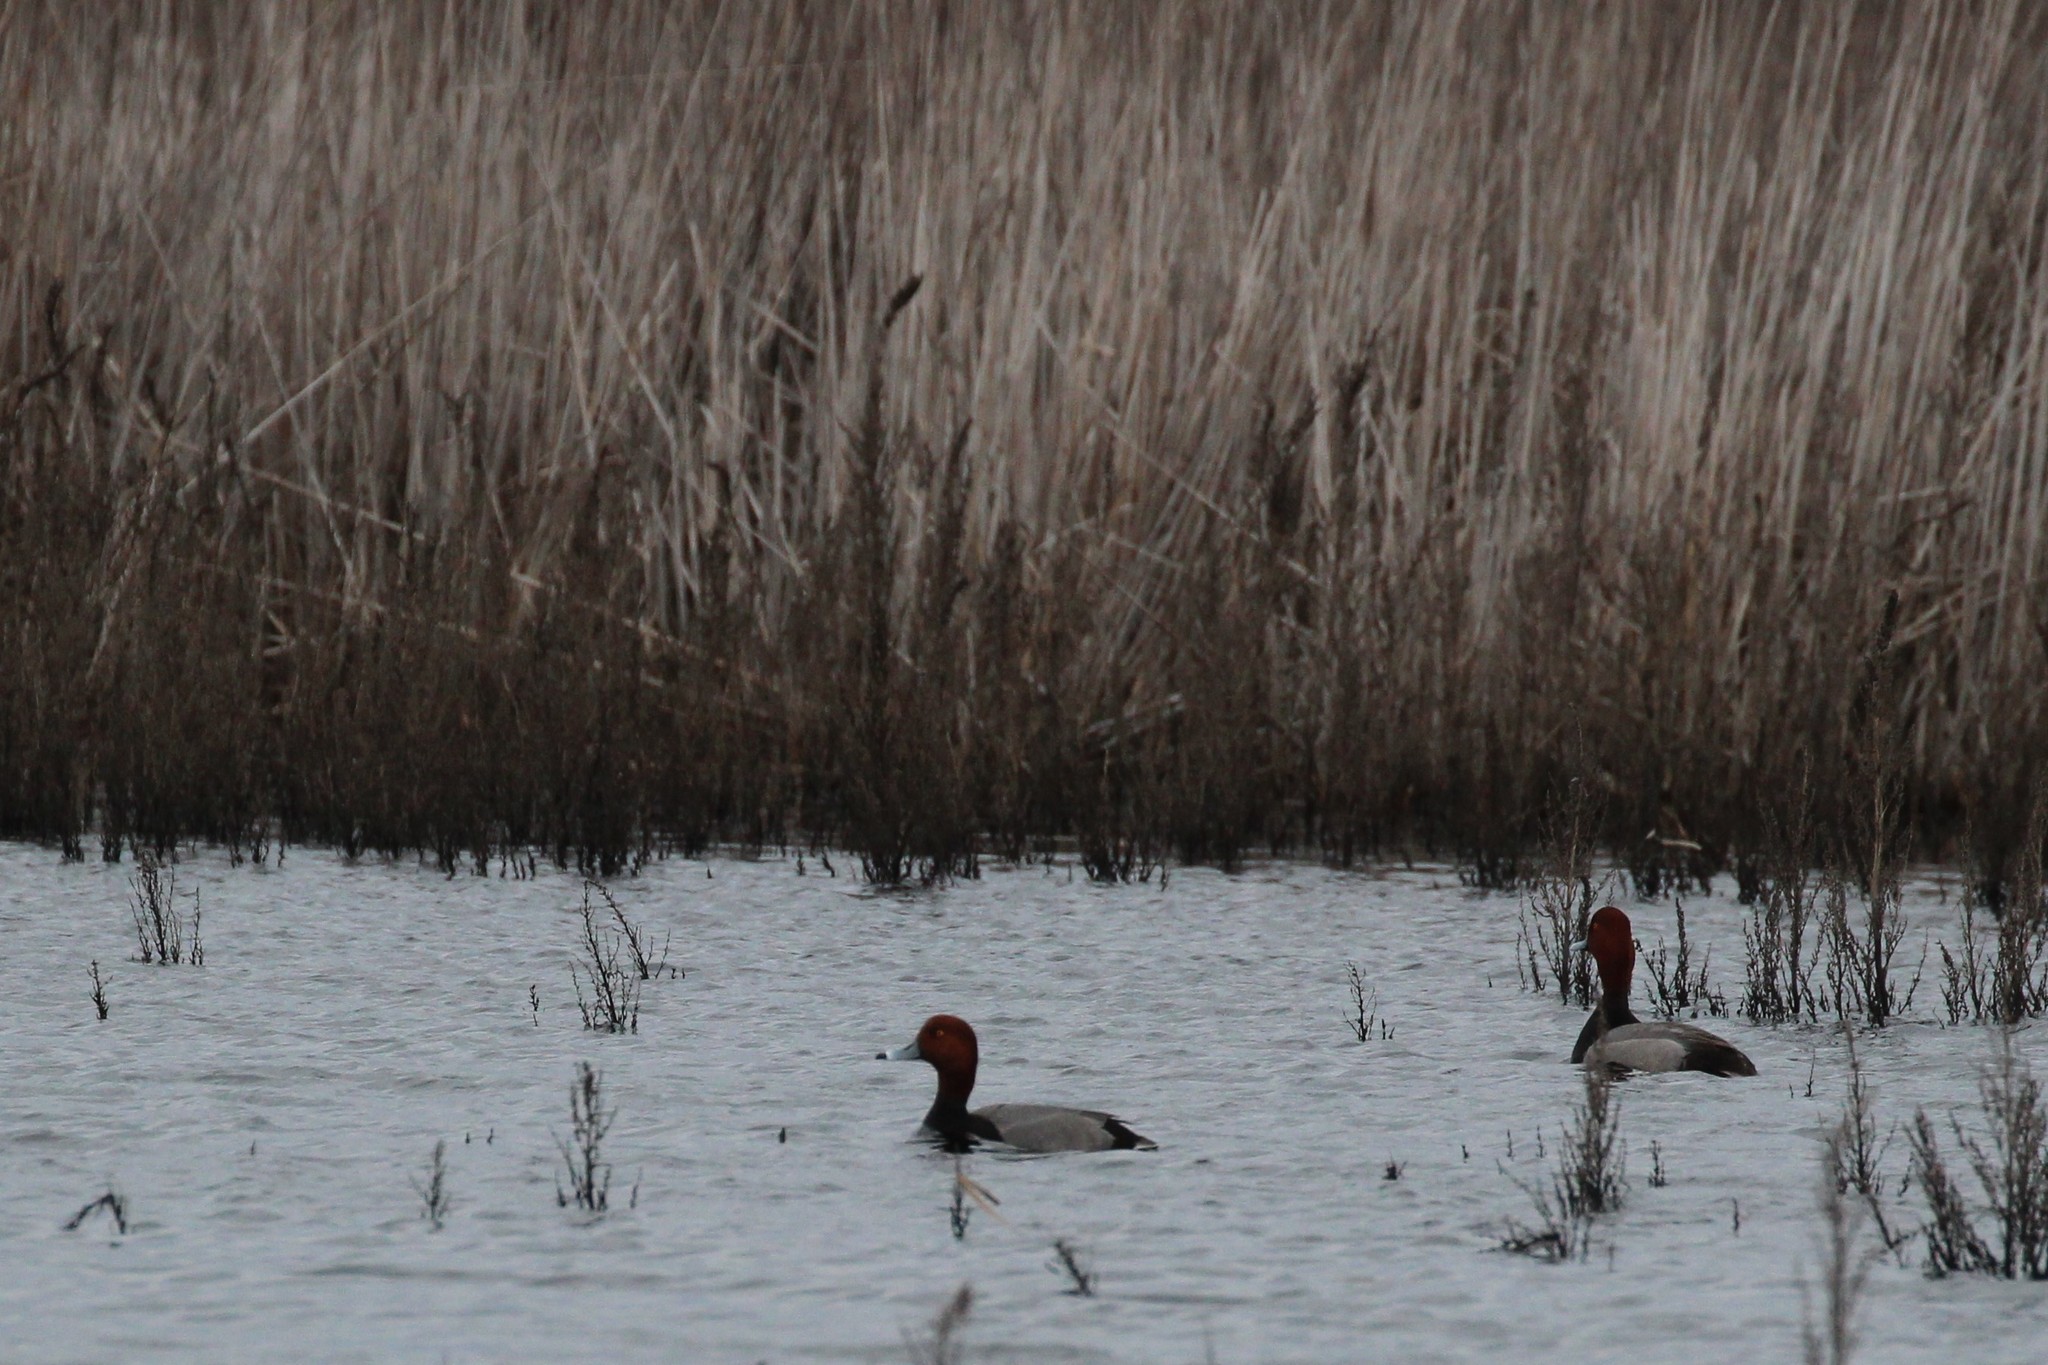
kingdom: Animalia
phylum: Chordata
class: Aves
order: Anseriformes
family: Anatidae
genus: Aythya
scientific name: Aythya americana
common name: Redhead
